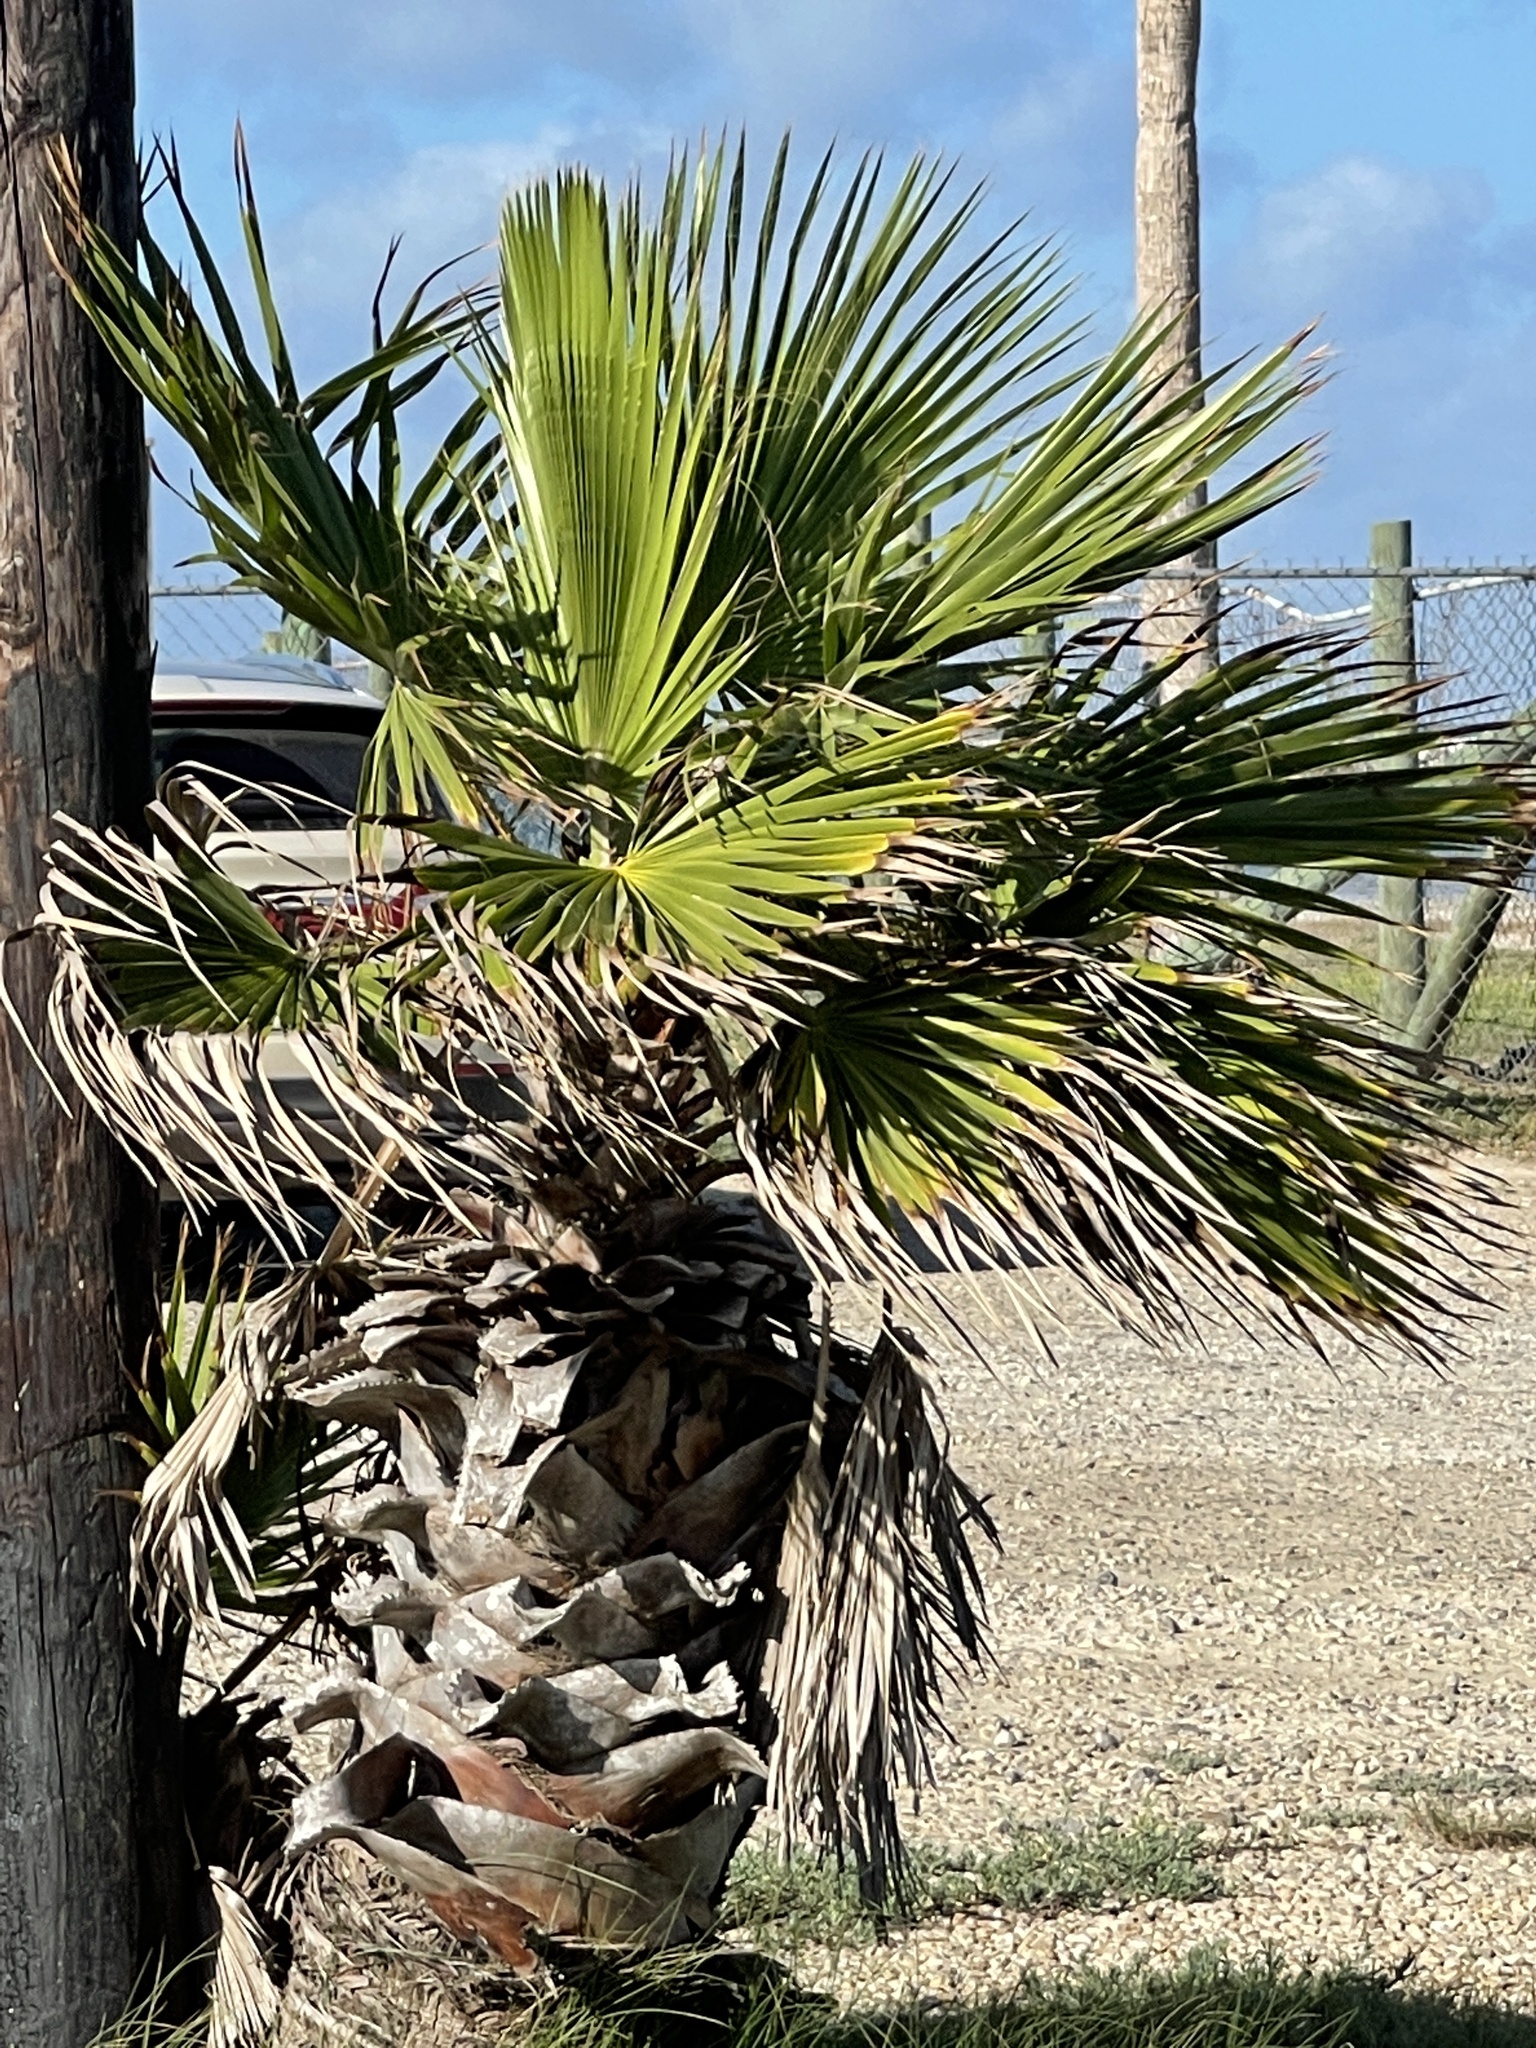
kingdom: Plantae
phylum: Tracheophyta
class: Liliopsida
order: Arecales
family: Arecaceae
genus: Washingtonia
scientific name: Washingtonia robusta
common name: Mexican fan palm
